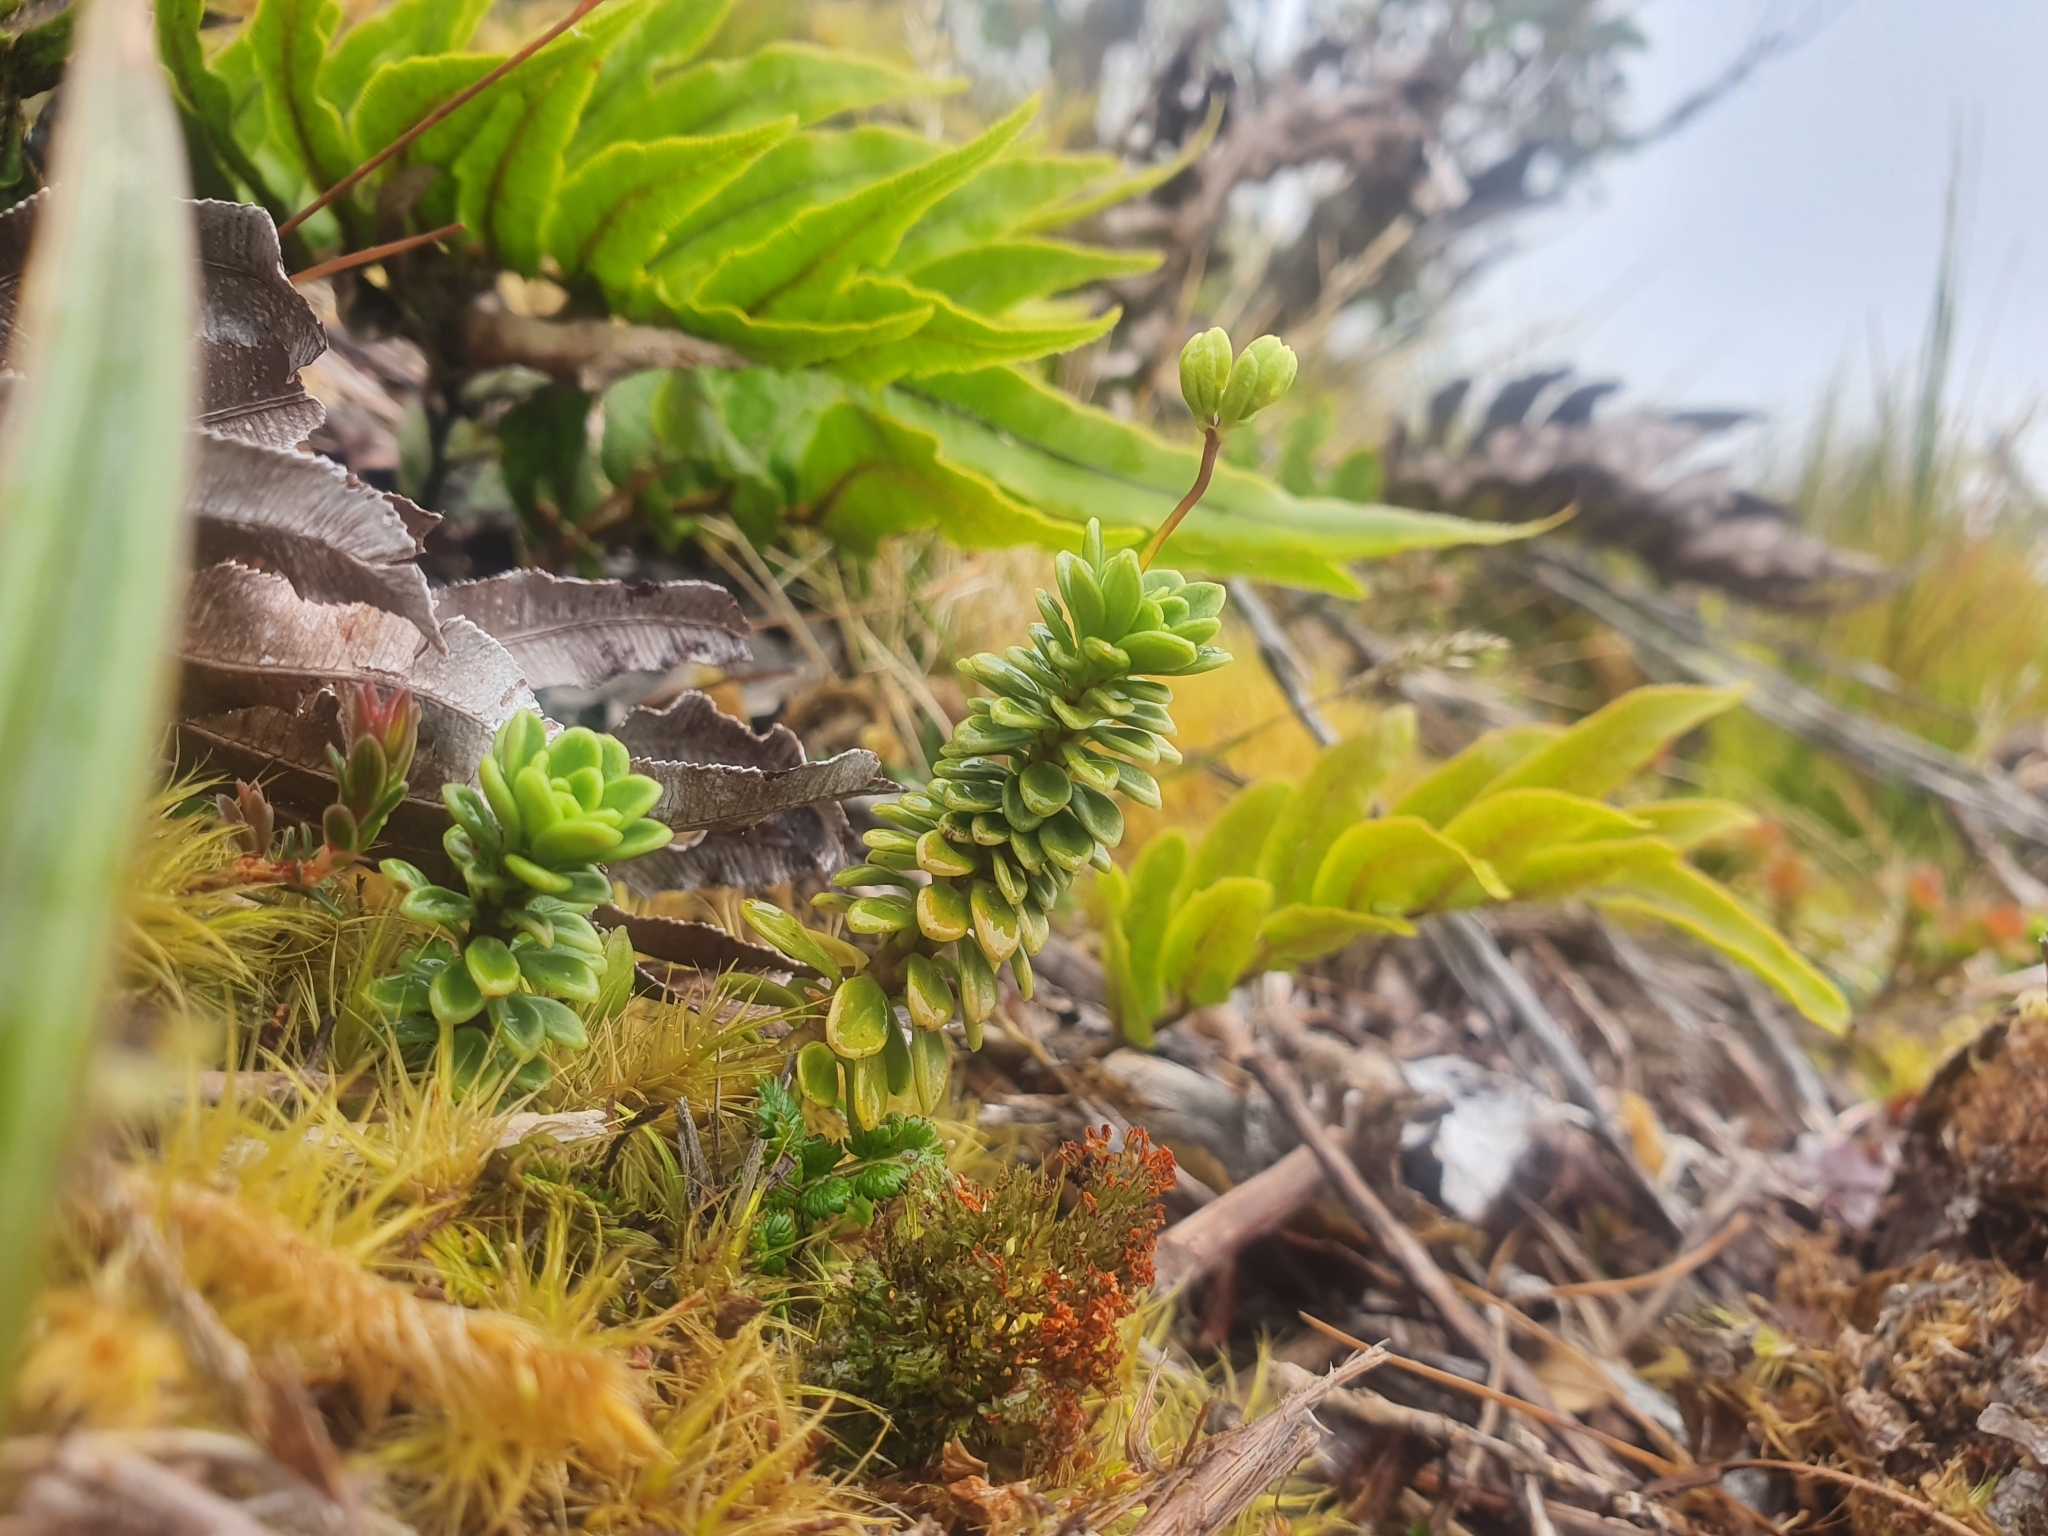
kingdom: Plantae
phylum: Tracheophyta
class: Magnoliopsida
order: Asterales
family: Stylidiaceae
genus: Forstera
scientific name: Forstera tenella
